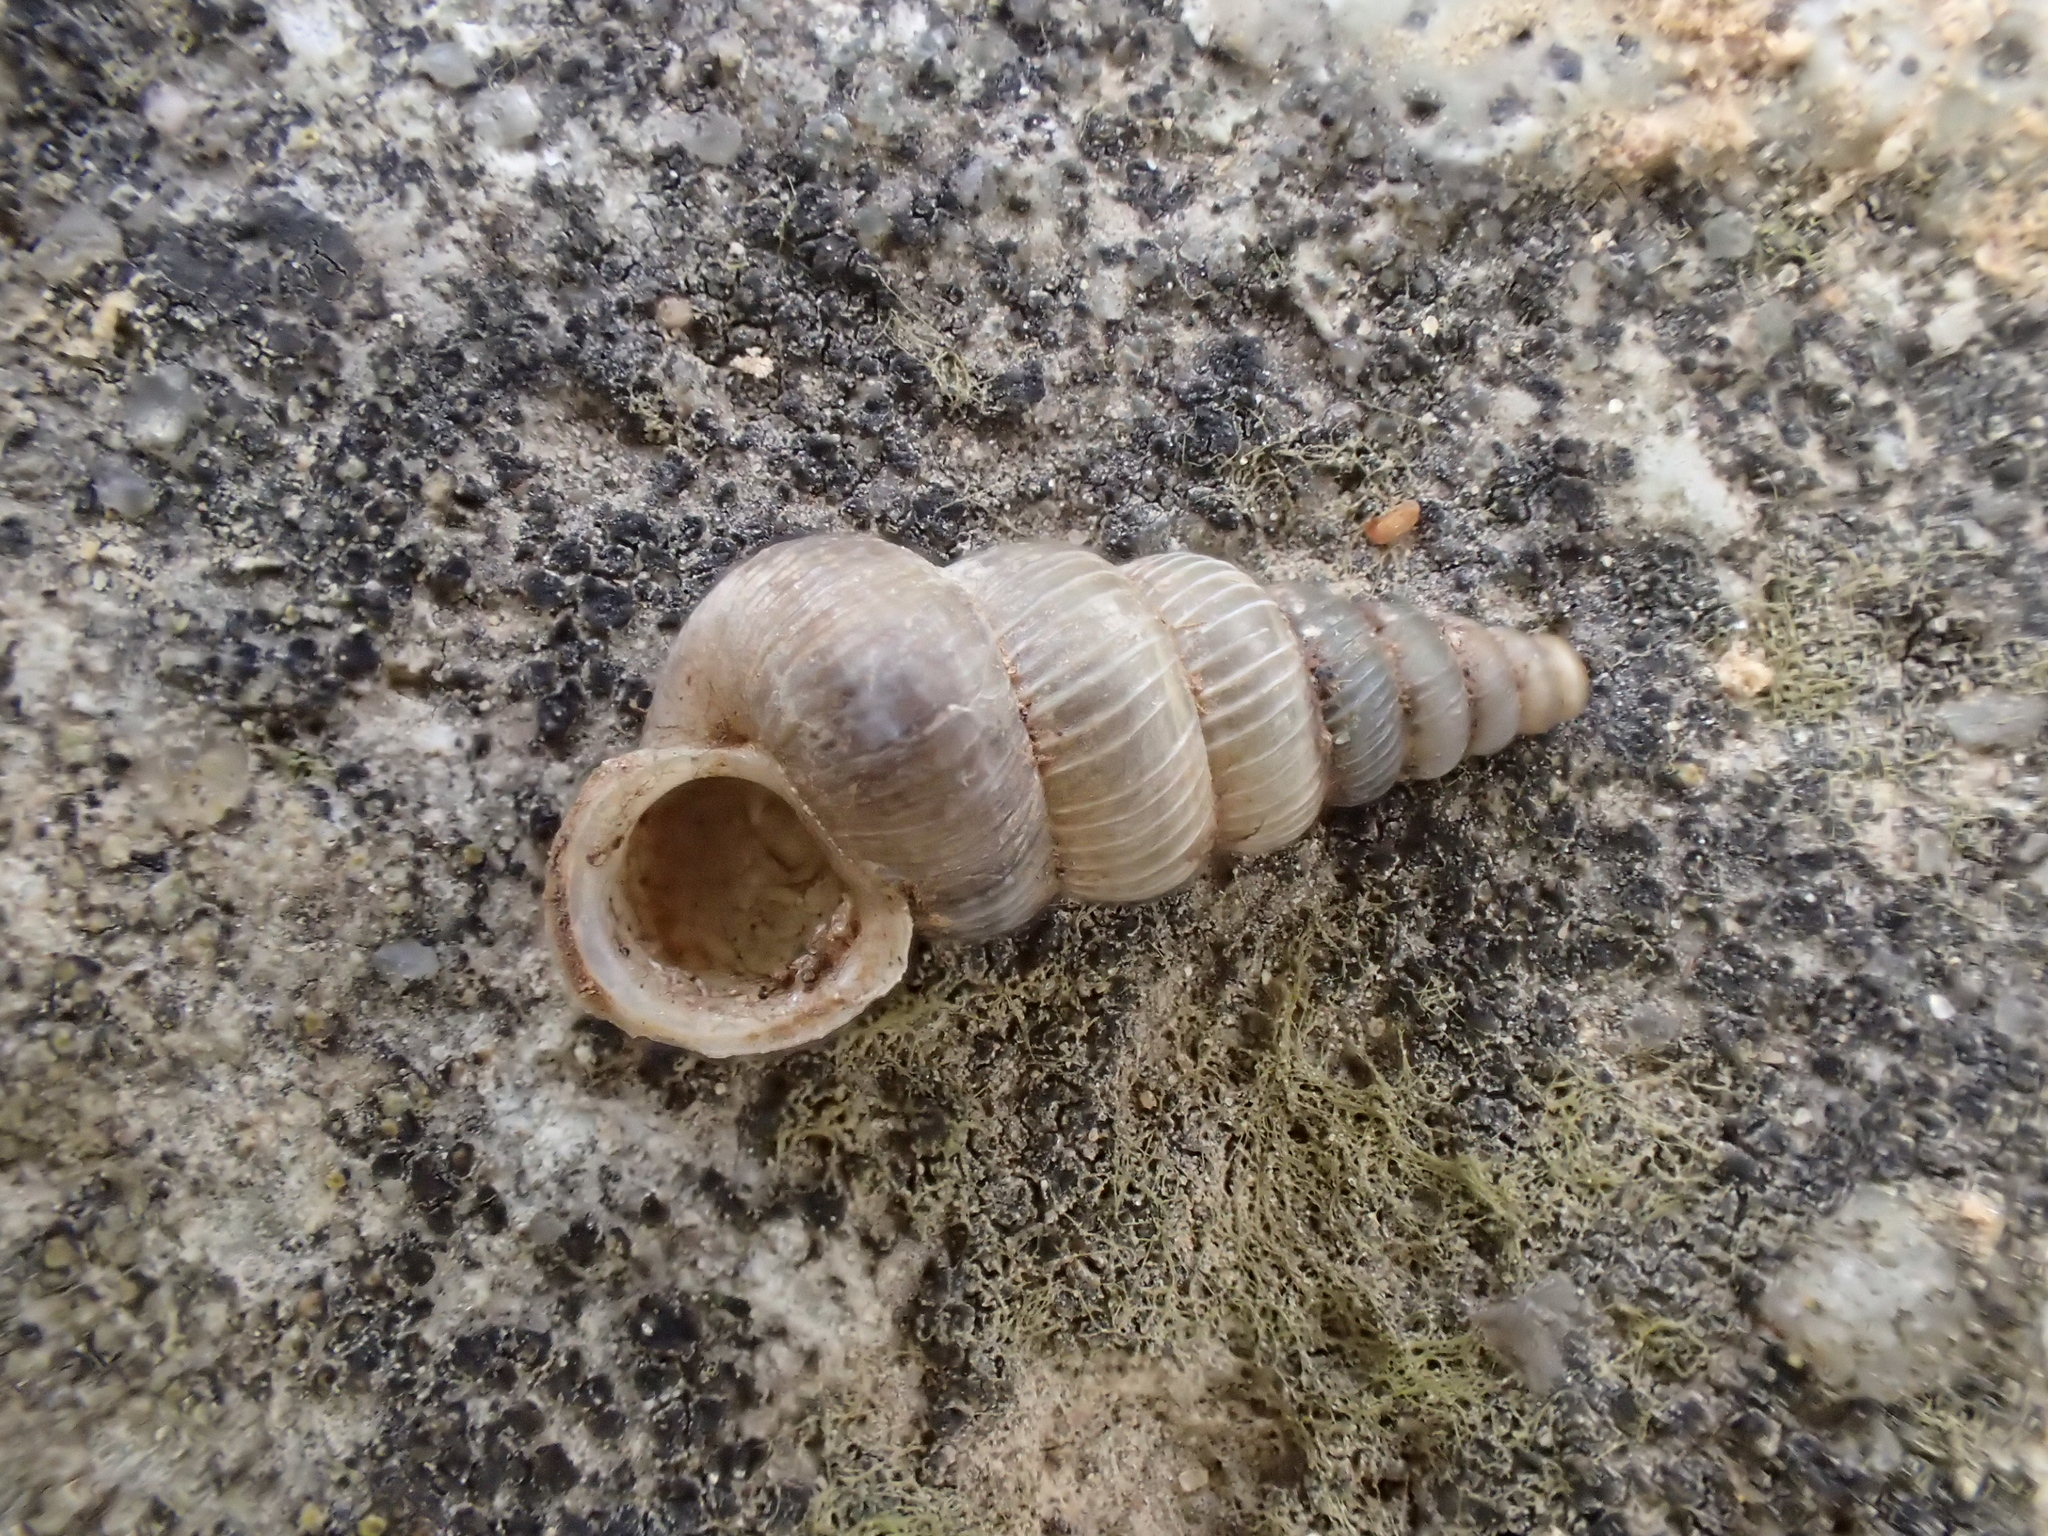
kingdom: Animalia
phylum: Mollusca
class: Gastropoda
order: Architaenioglossa
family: Cochlostomatidae
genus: Cochlostoma
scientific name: Cochlostoma patulum
